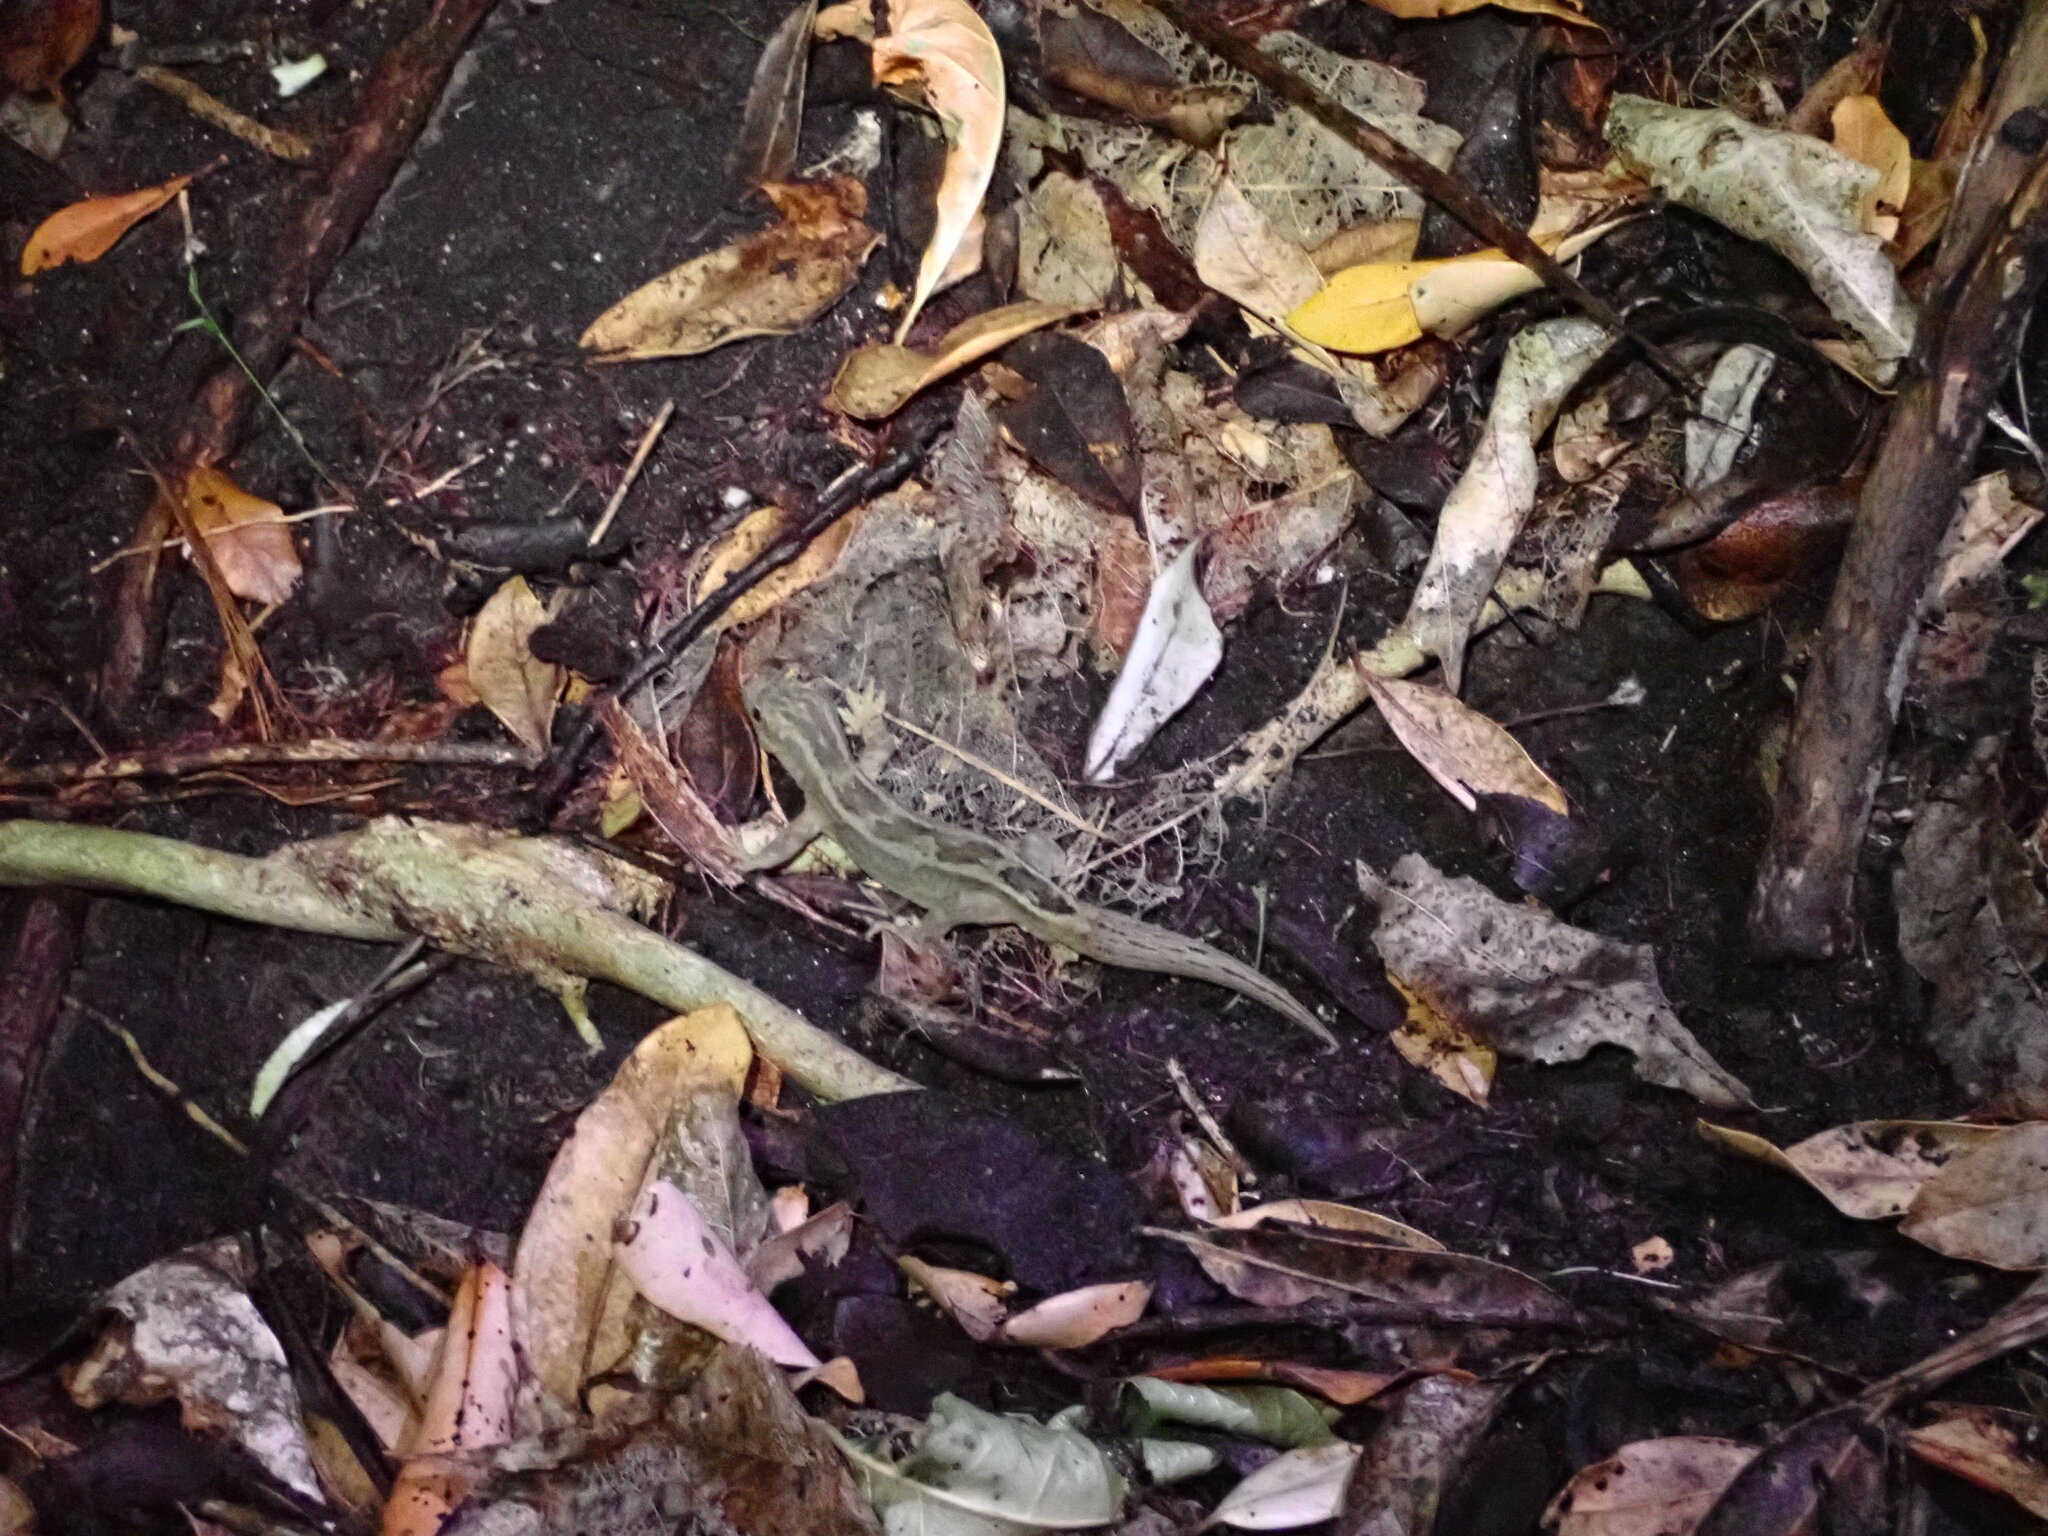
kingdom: Animalia
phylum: Chordata
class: Squamata
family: Diplodactylidae
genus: Woodworthia
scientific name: Woodworthia maculata
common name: Raukawa gecko
